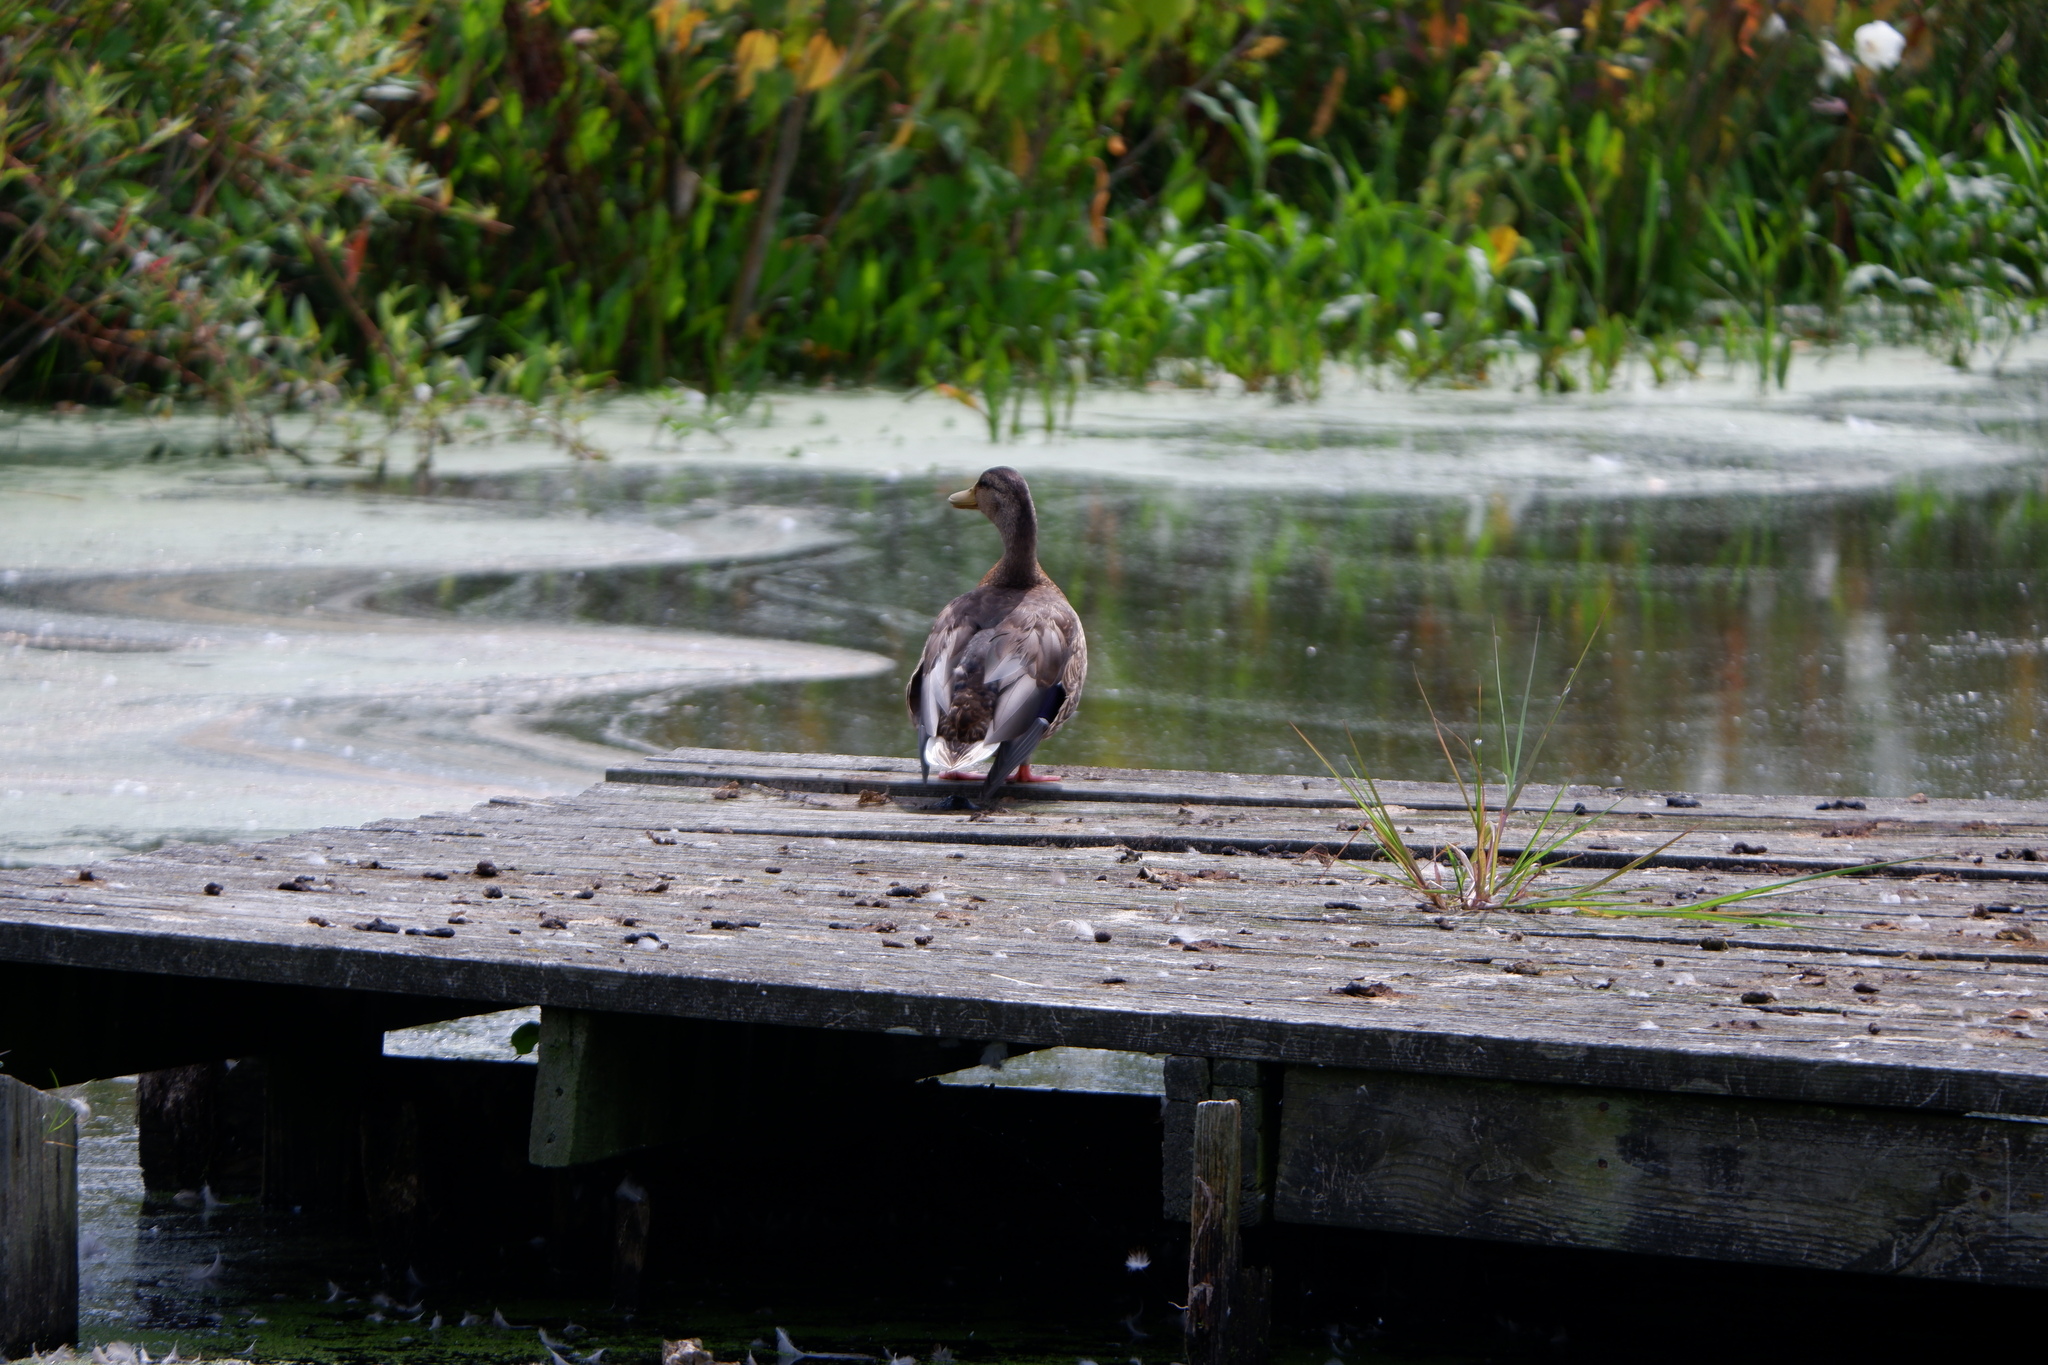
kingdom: Animalia
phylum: Chordata
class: Aves
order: Anseriformes
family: Anatidae
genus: Anas
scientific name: Anas platyrhynchos
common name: Mallard
